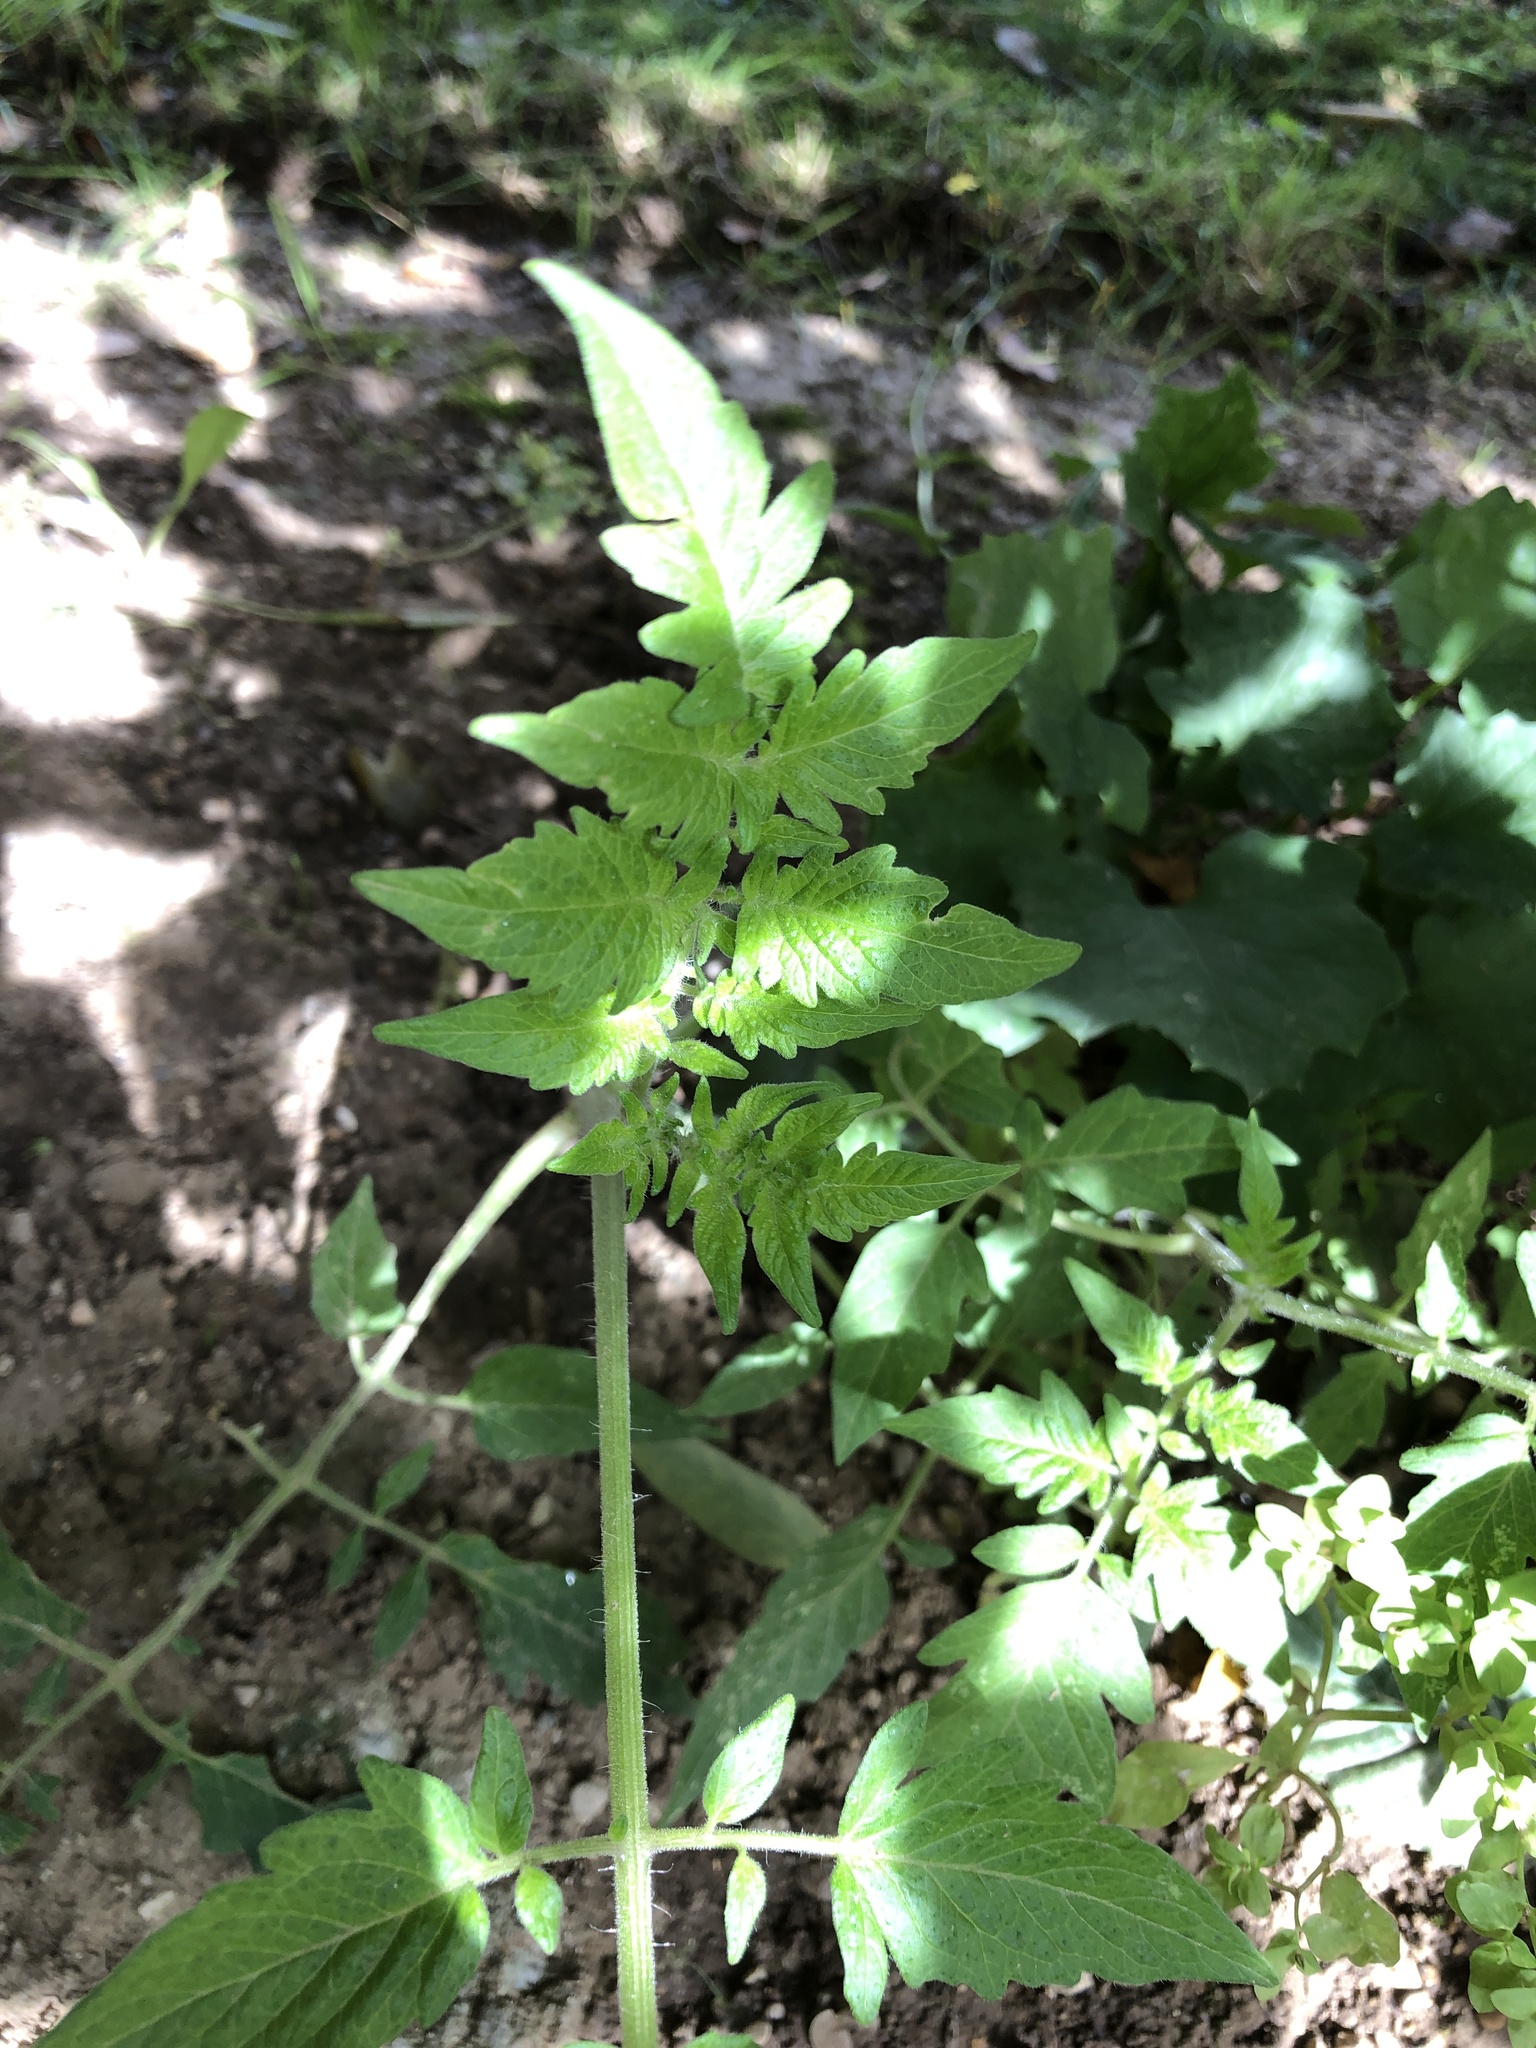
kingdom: Plantae
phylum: Tracheophyta
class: Magnoliopsida
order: Solanales
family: Solanaceae
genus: Solanum
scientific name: Solanum lycopersicum
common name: Garden tomato
